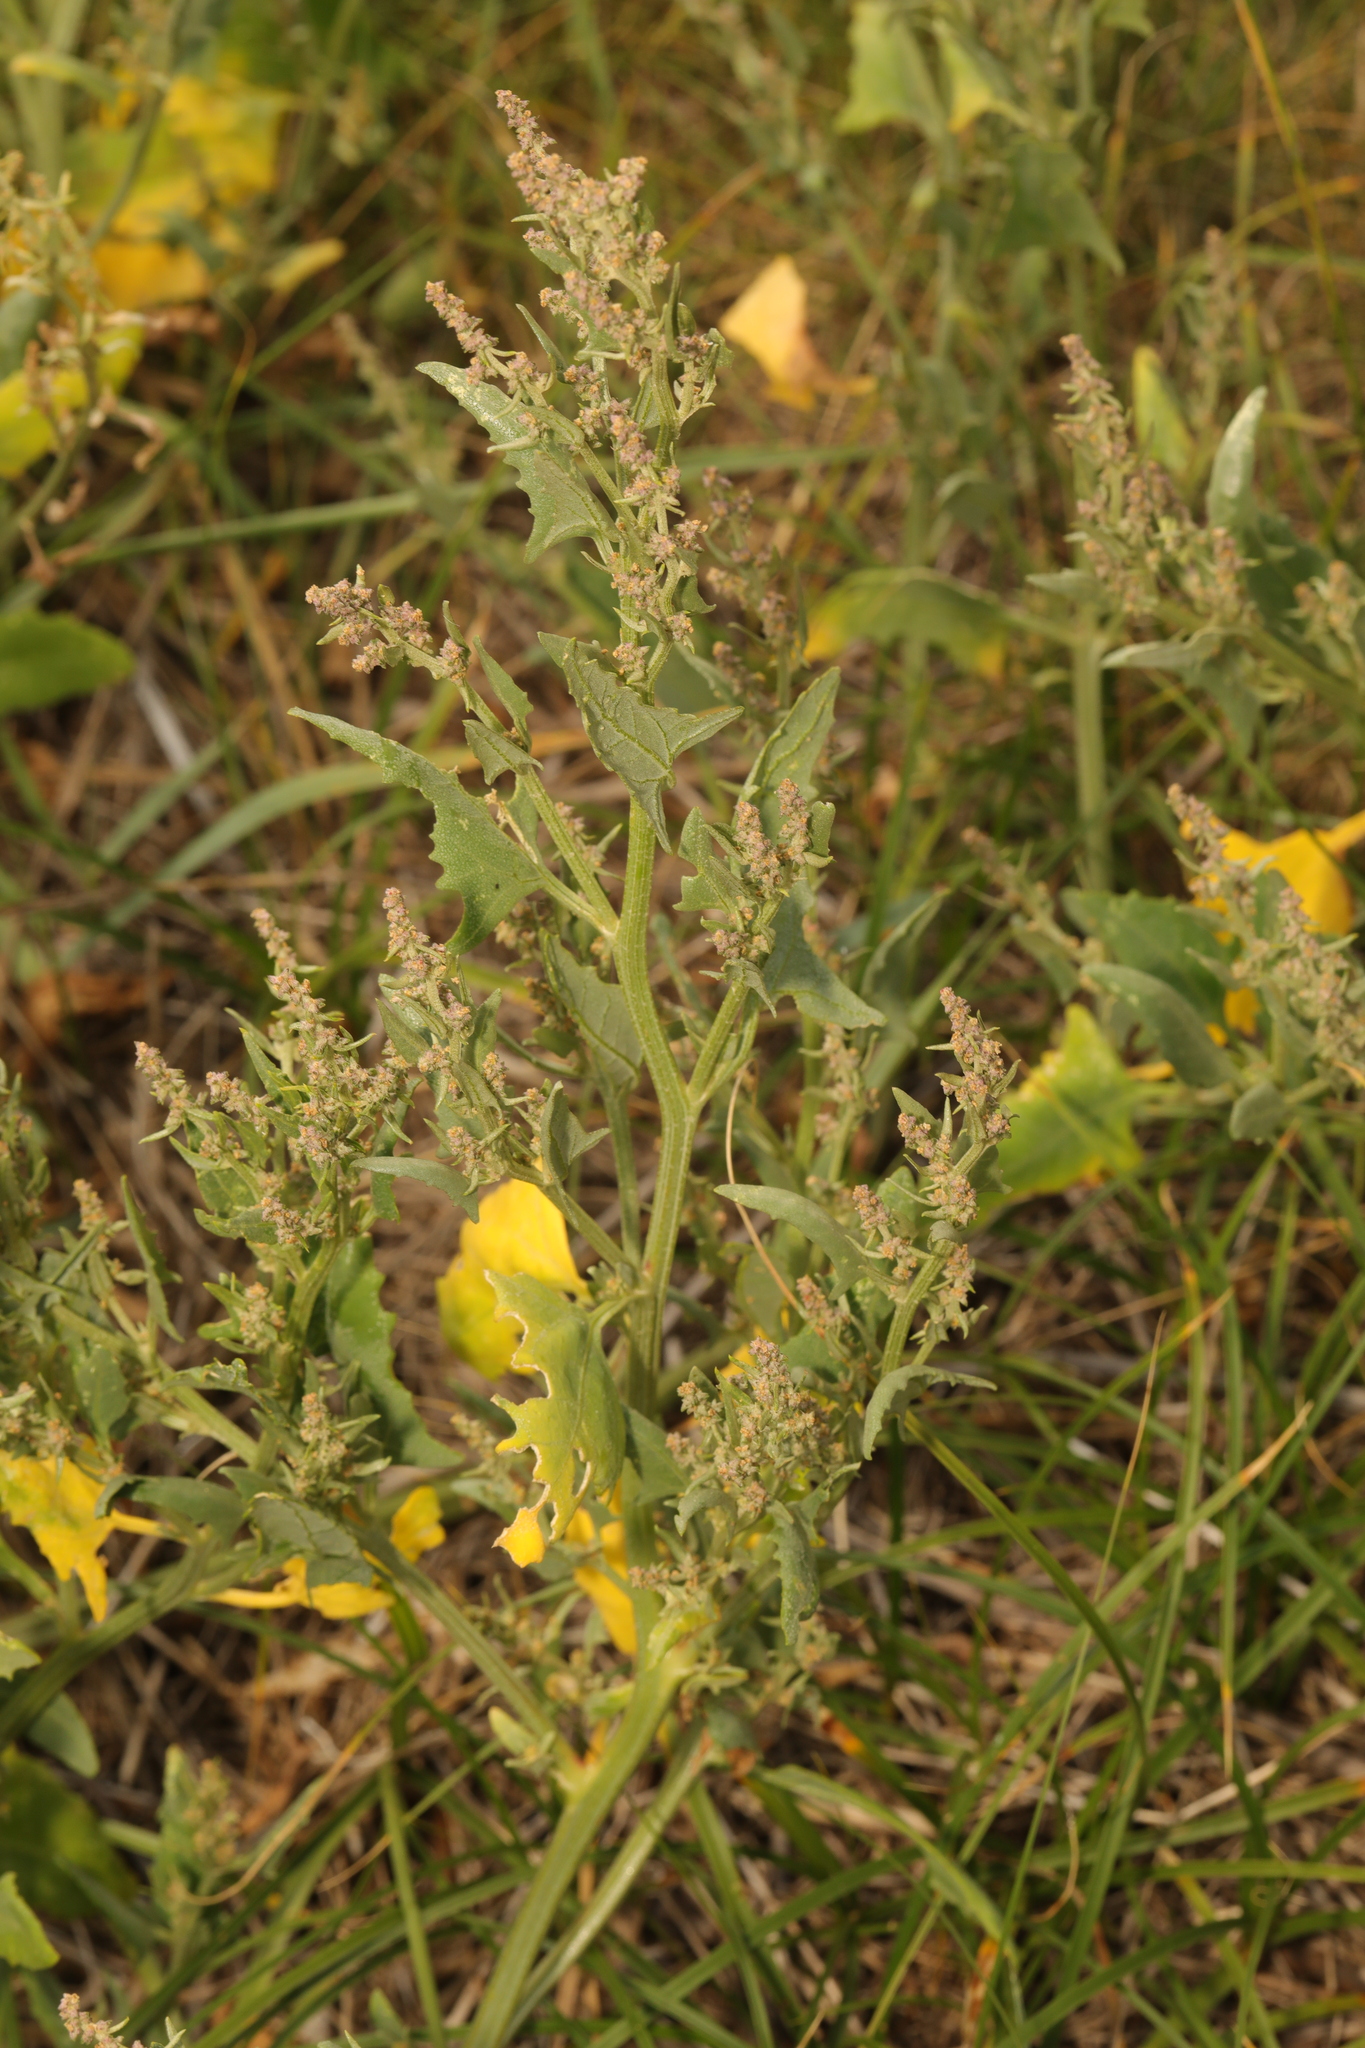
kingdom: Plantae
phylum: Tracheophyta
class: Magnoliopsida
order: Caryophyllales
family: Amaranthaceae
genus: Atriplex
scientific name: Atriplex patula
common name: Common orache
